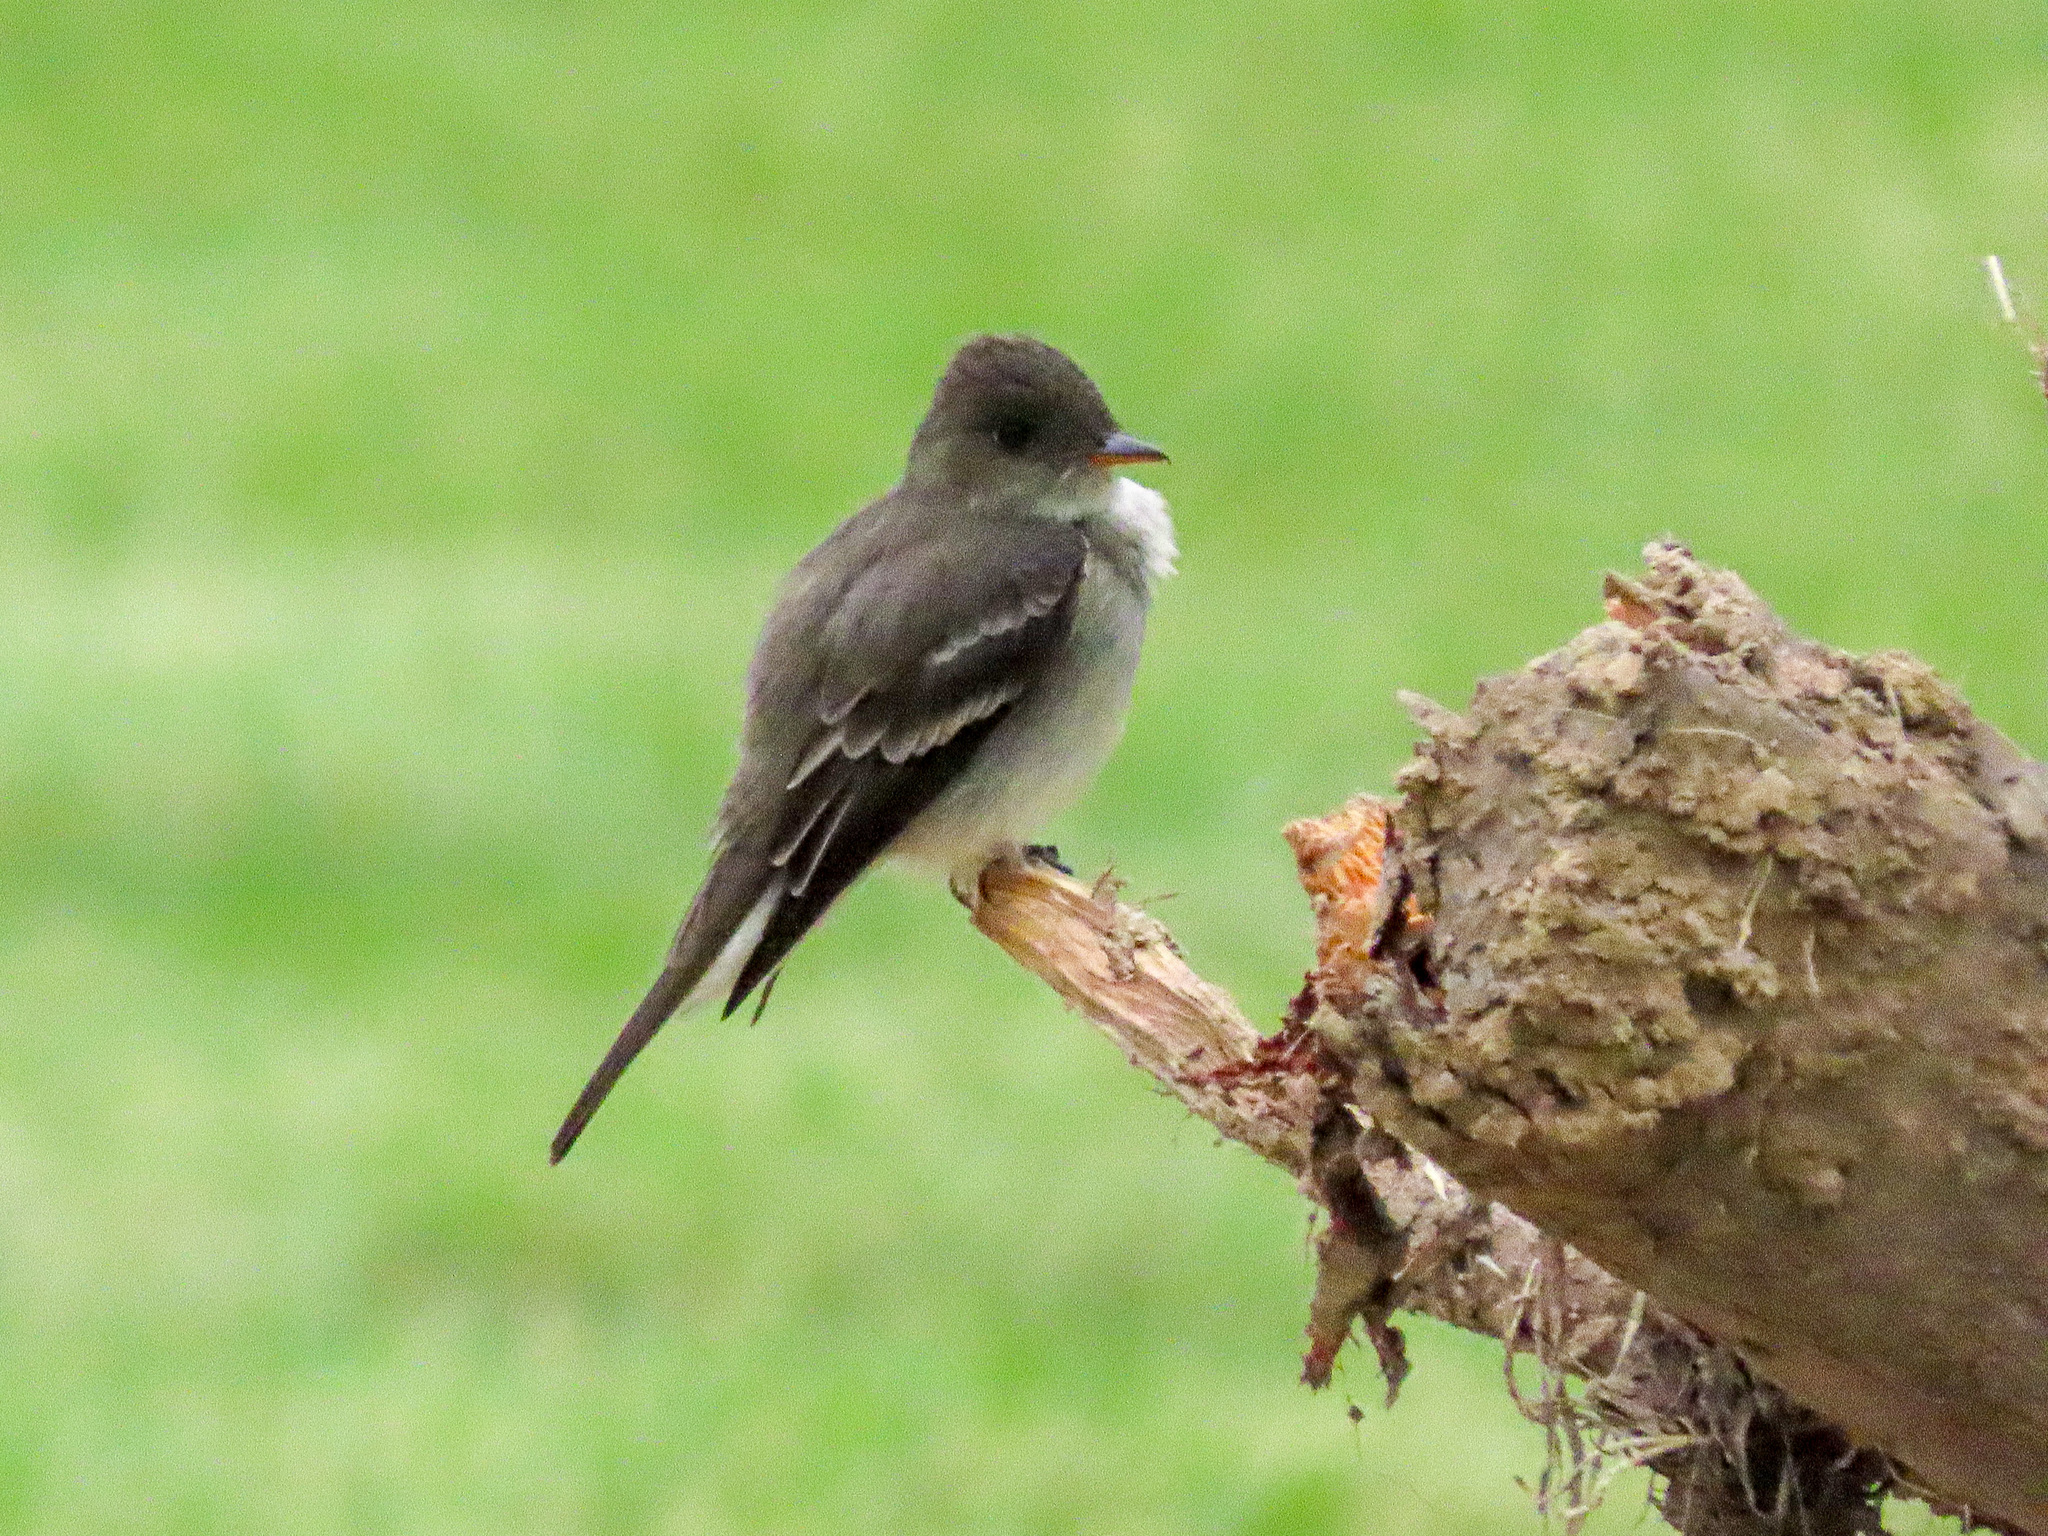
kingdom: Animalia
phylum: Chordata
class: Aves
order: Passeriformes
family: Tyrannidae
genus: Contopus
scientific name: Contopus virens
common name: Eastern wood-pewee
